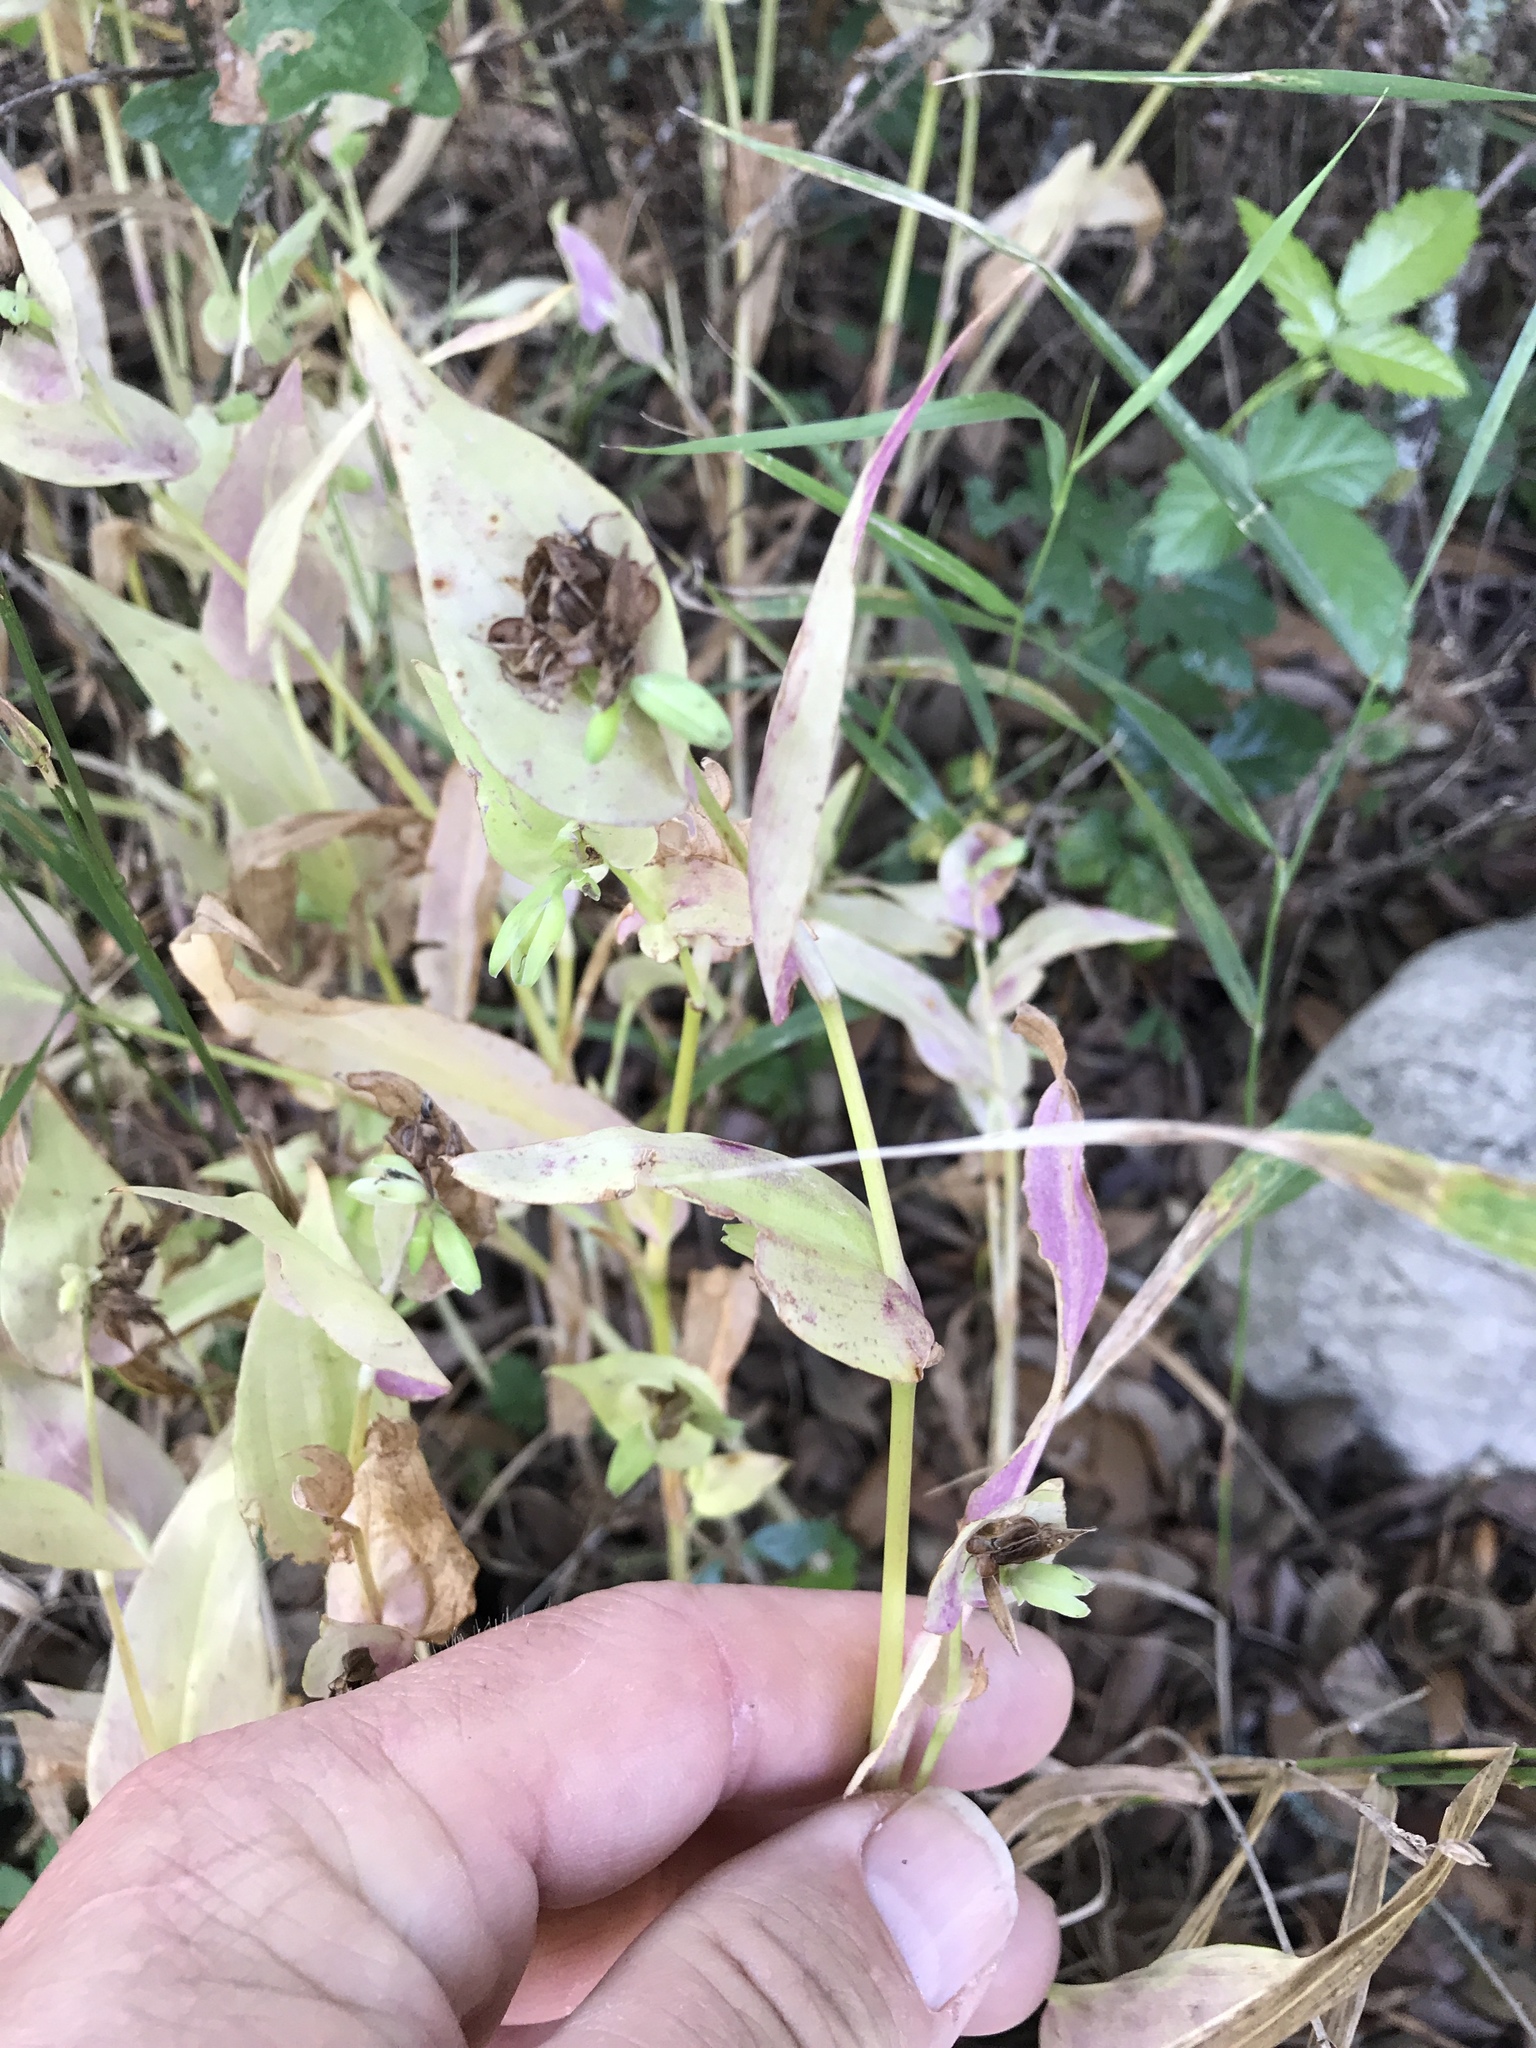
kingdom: Plantae
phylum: Tracheophyta
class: Liliopsida
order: Commelinales
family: Commelinaceae
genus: Tinantia
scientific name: Tinantia anomala
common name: False dayflower
